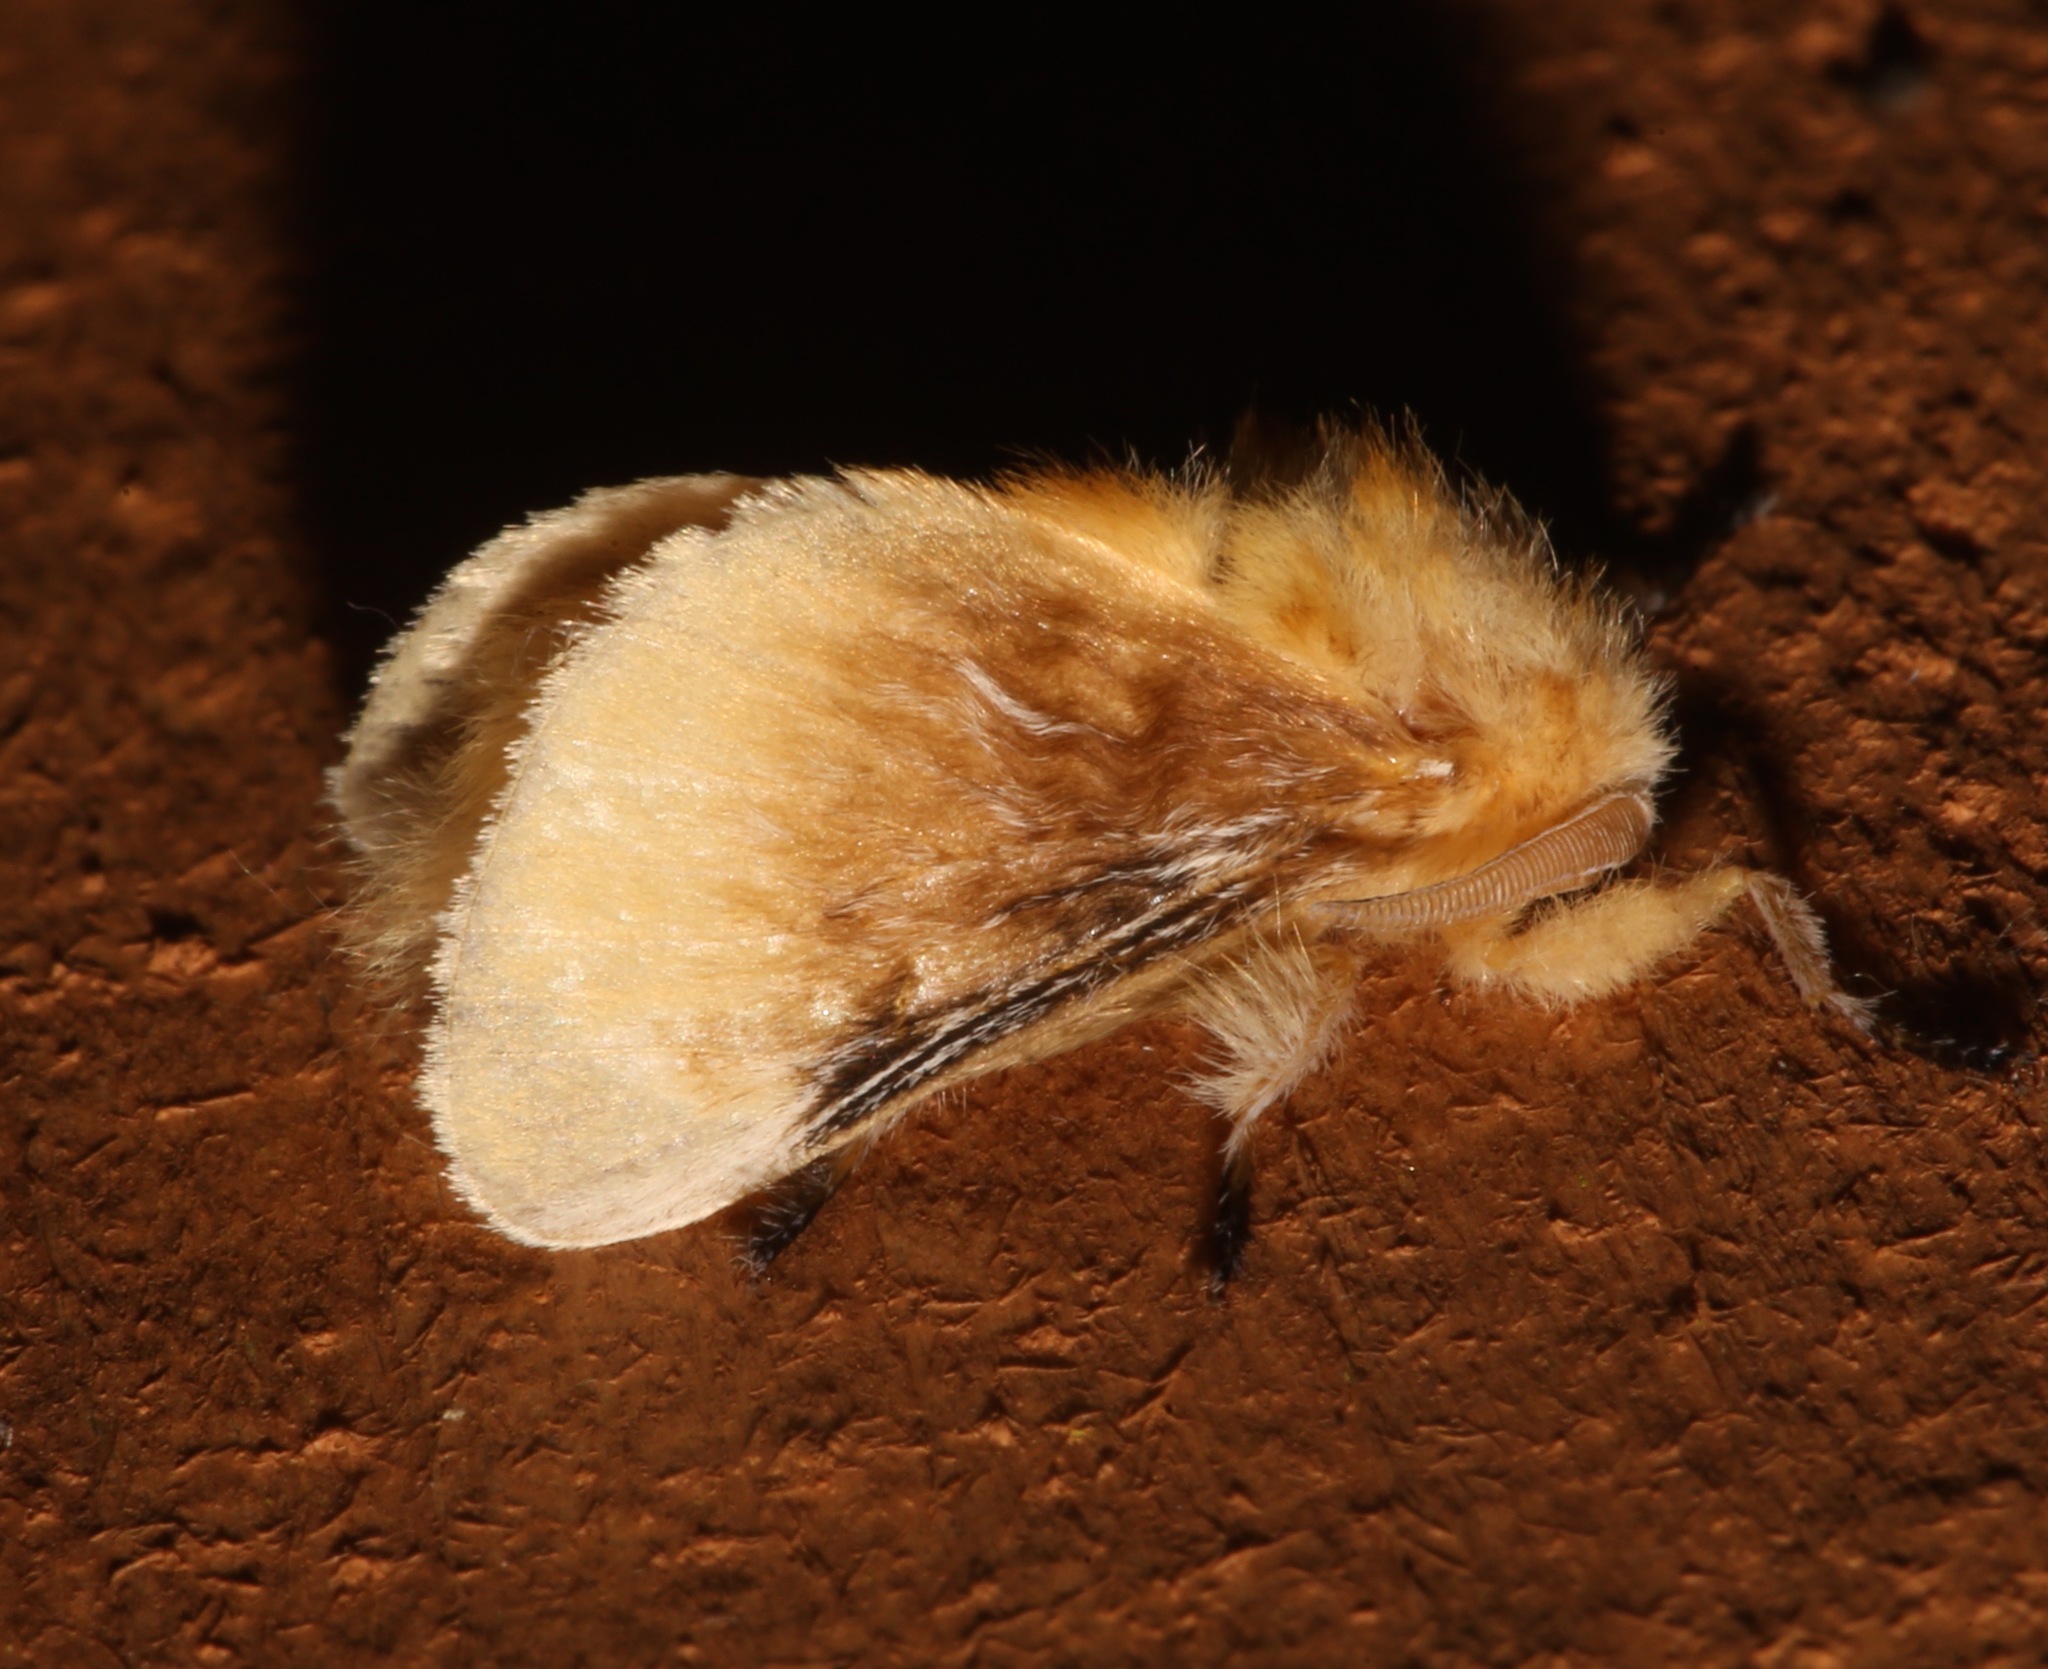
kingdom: Animalia
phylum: Arthropoda
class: Insecta
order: Lepidoptera
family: Megalopygidae
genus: Megalopyge
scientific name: Megalopyge opercularis
